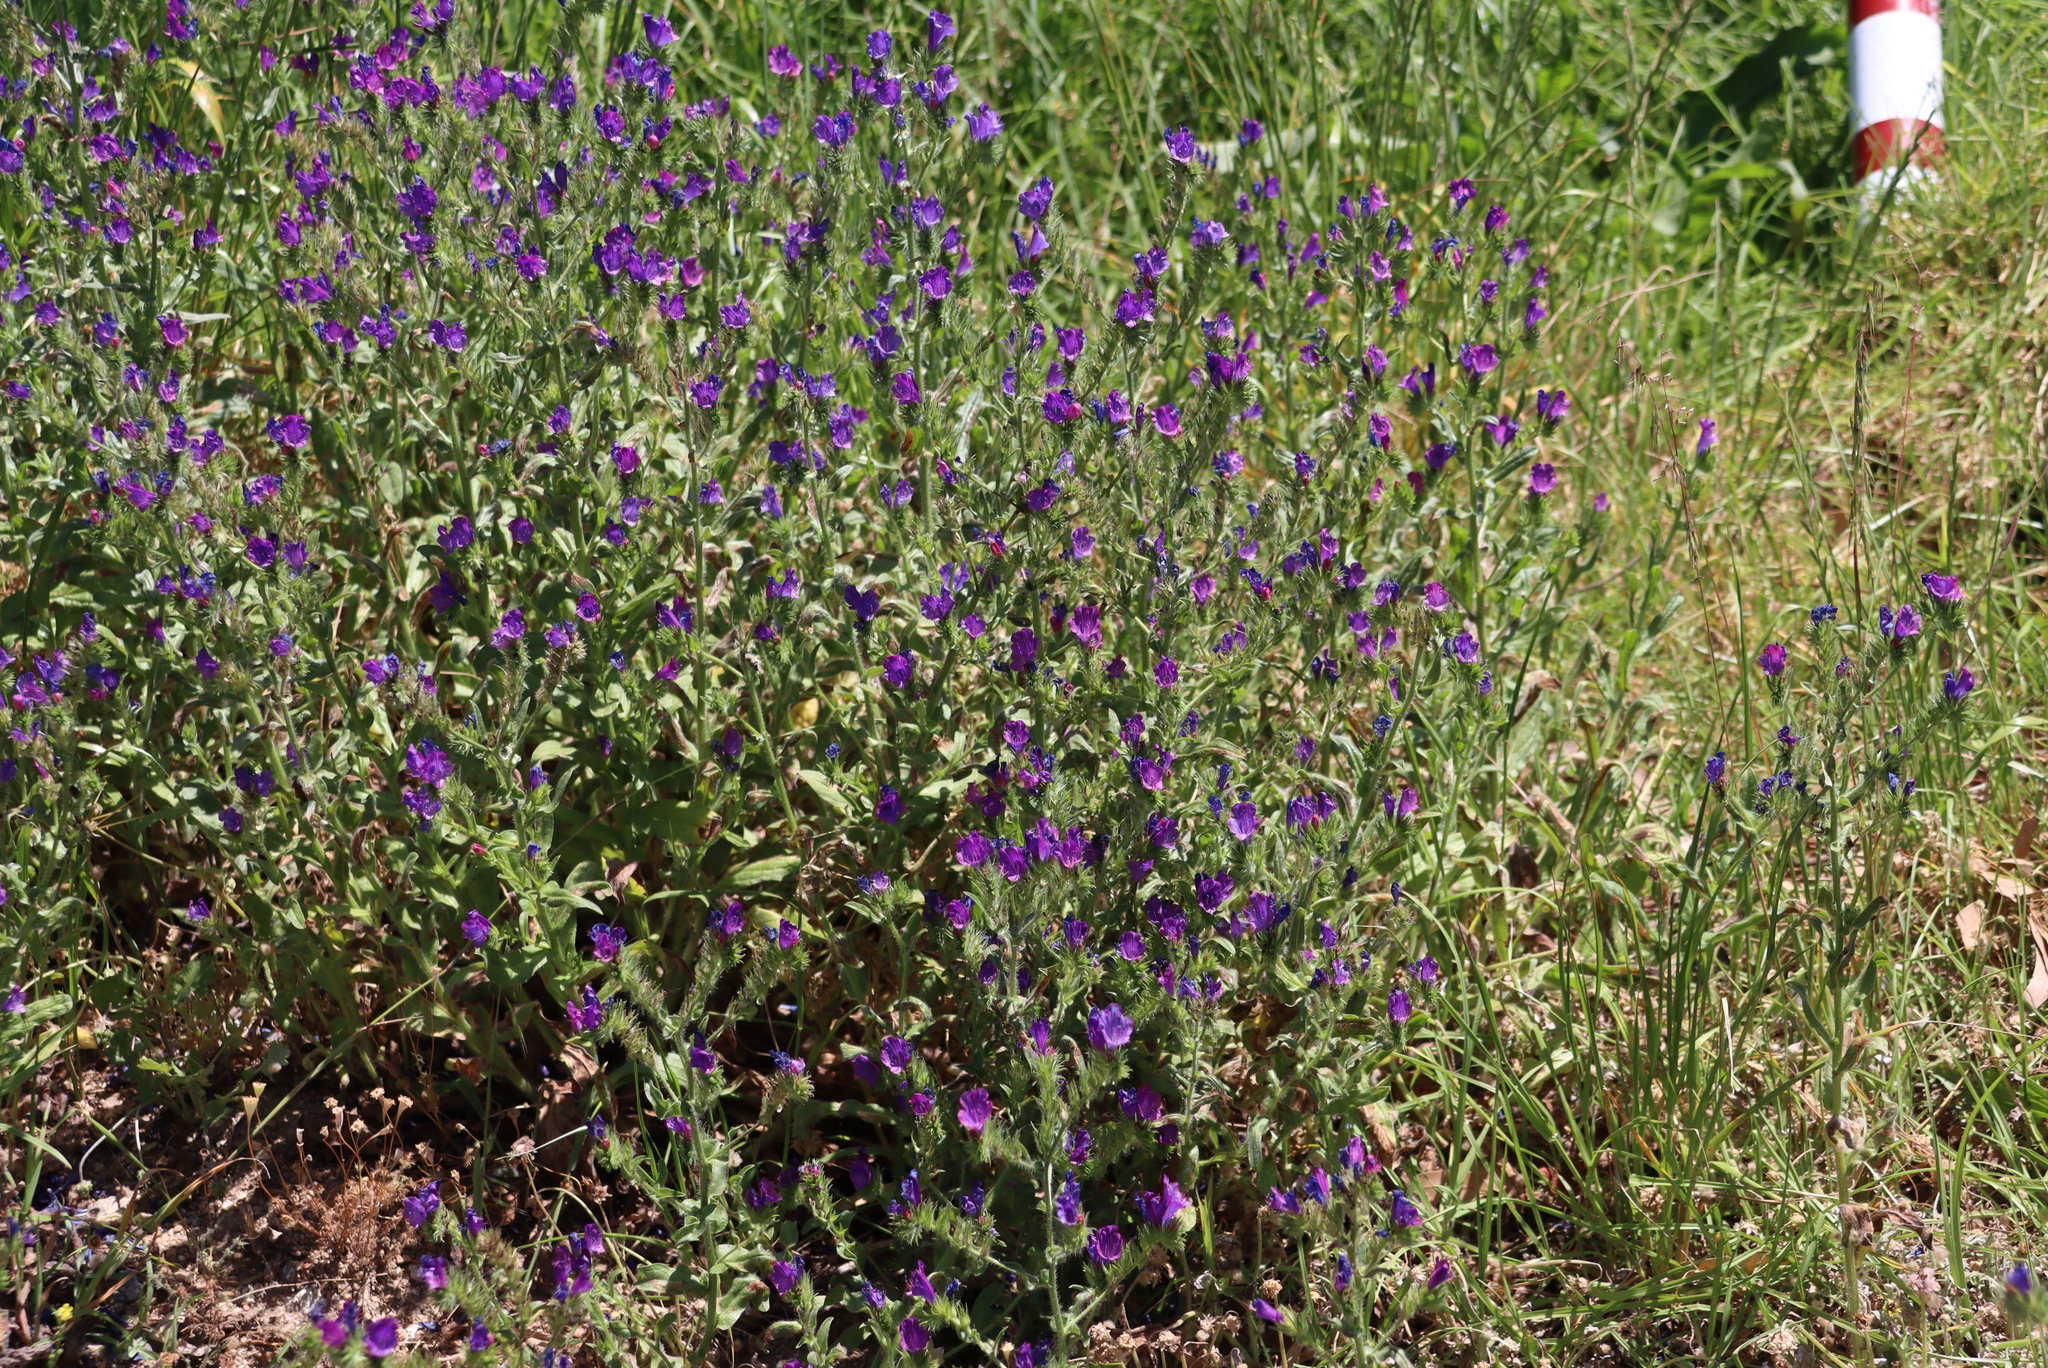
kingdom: Plantae
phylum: Tracheophyta
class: Magnoliopsida
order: Boraginales
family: Boraginaceae
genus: Echium
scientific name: Echium plantagineum
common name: Purple viper's-bugloss
